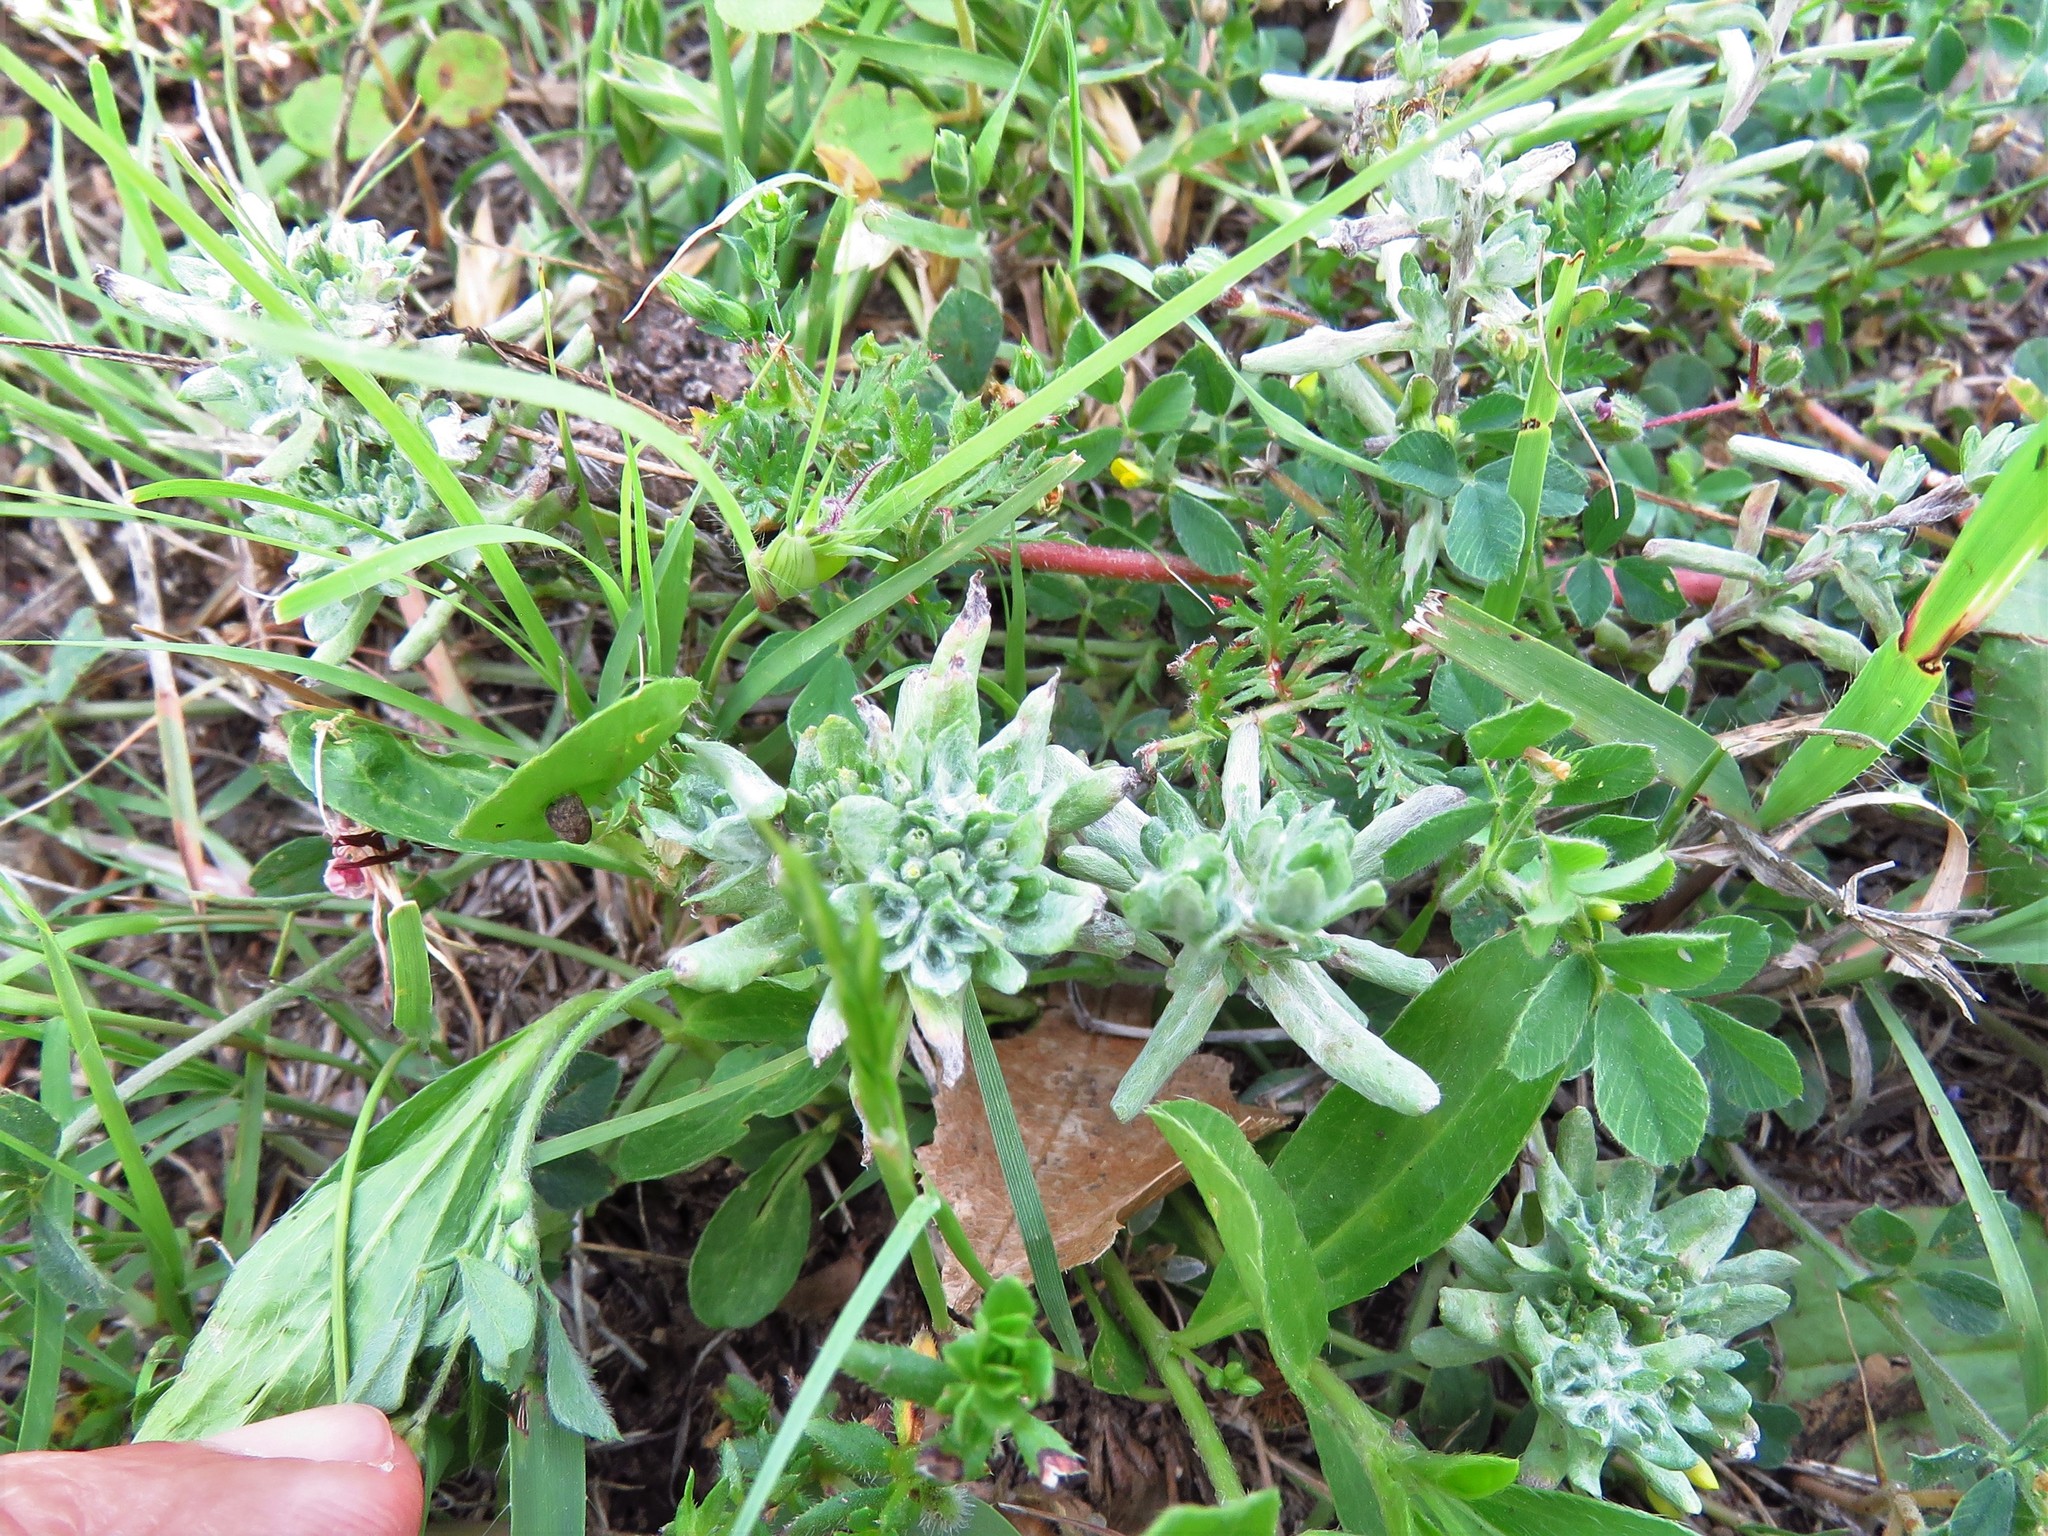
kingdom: Plantae
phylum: Tracheophyta
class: Magnoliopsida
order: Asterales
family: Asteraceae
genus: Diaperia
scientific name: Diaperia prolifera
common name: Big-head rabbit-tobacco
